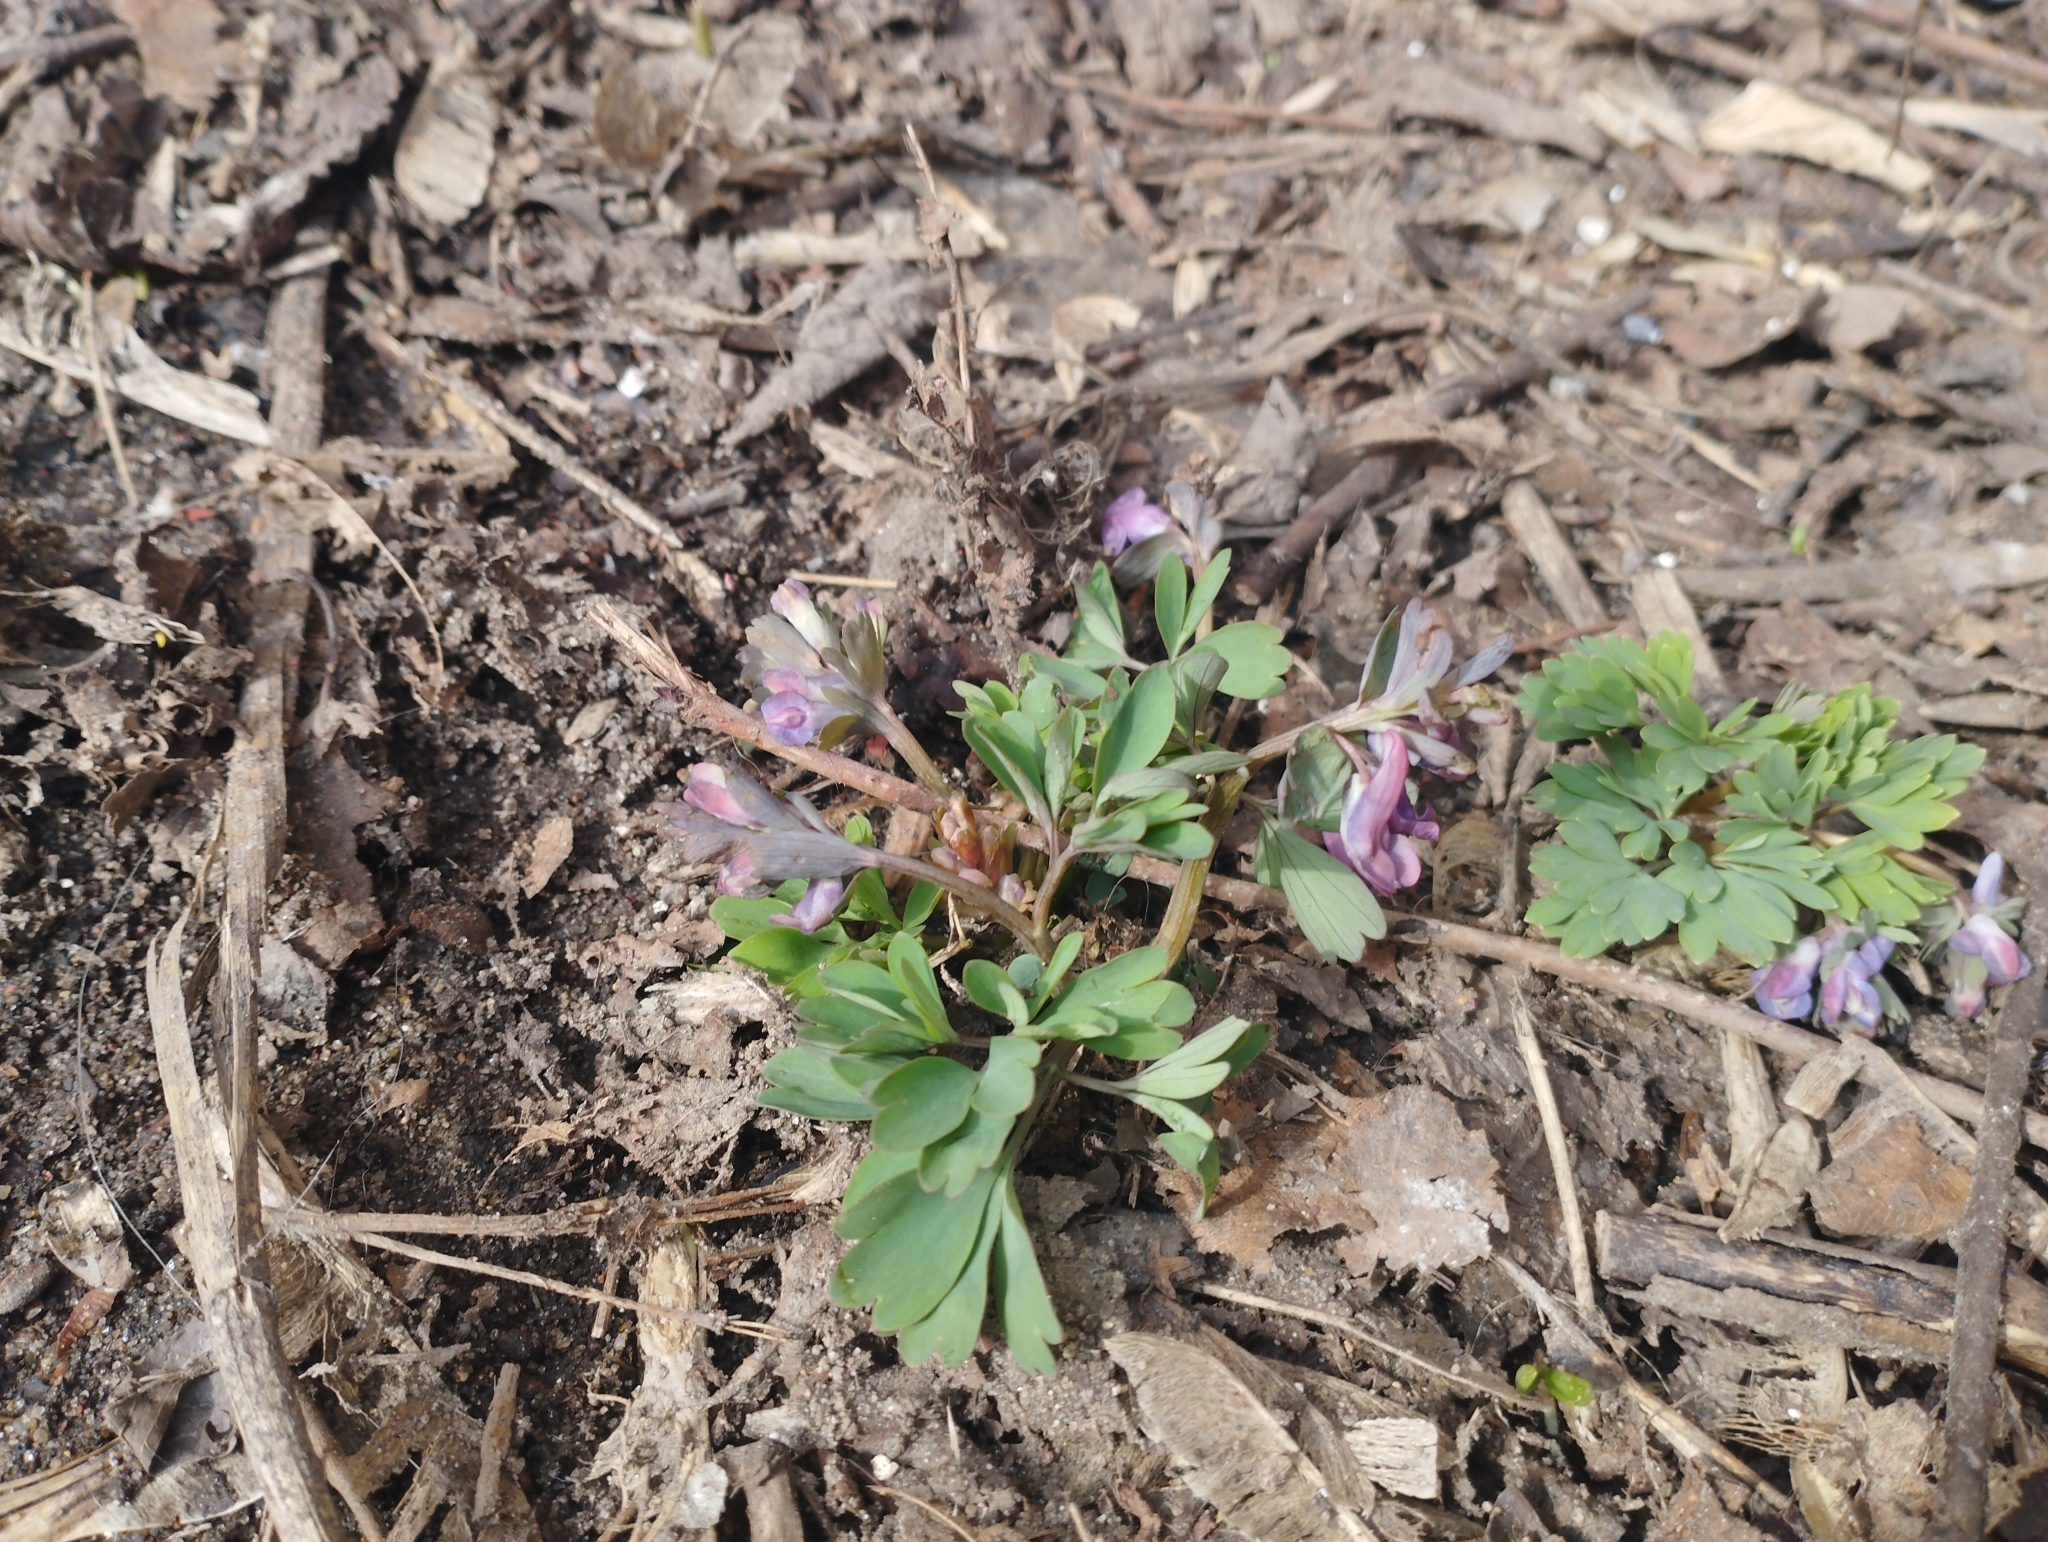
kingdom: Plantae
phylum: Tracheophyta
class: Magnoliopsida
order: Ranunculales
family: Papaveraceae
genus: Corydalis
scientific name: Corydalis solida
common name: Bird-in-a-bush
